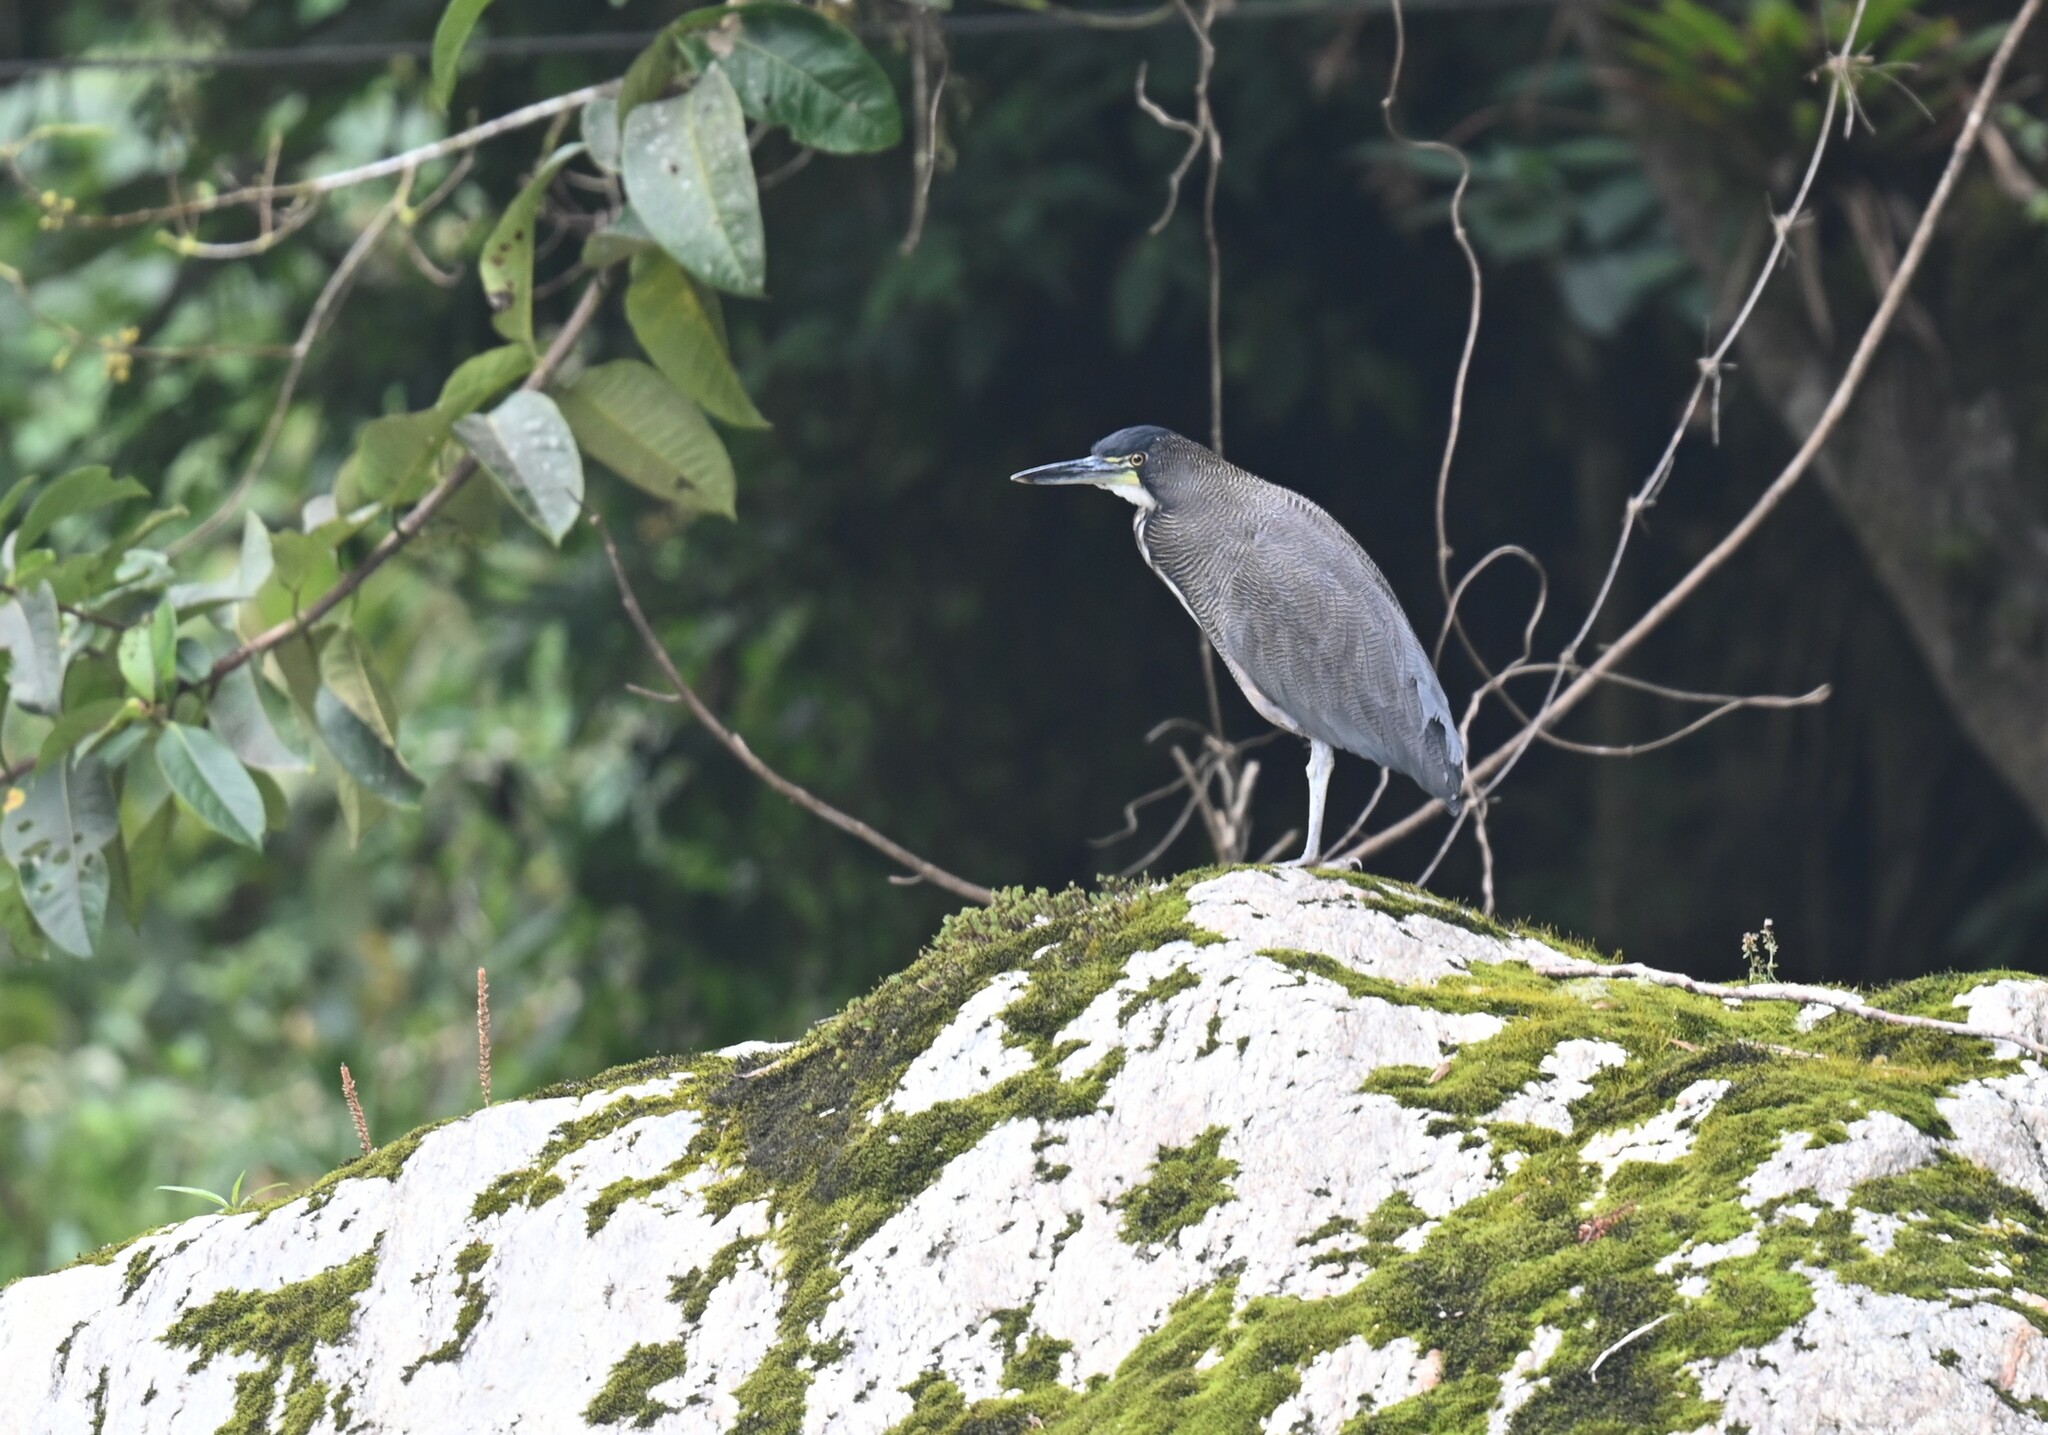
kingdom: Animalia
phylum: Chordata
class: Aves
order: Pelecaniformes
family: Ardeidae
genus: Tigrisoma
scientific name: Tigrisoma fasciatum
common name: Fasciated tiger-heron
